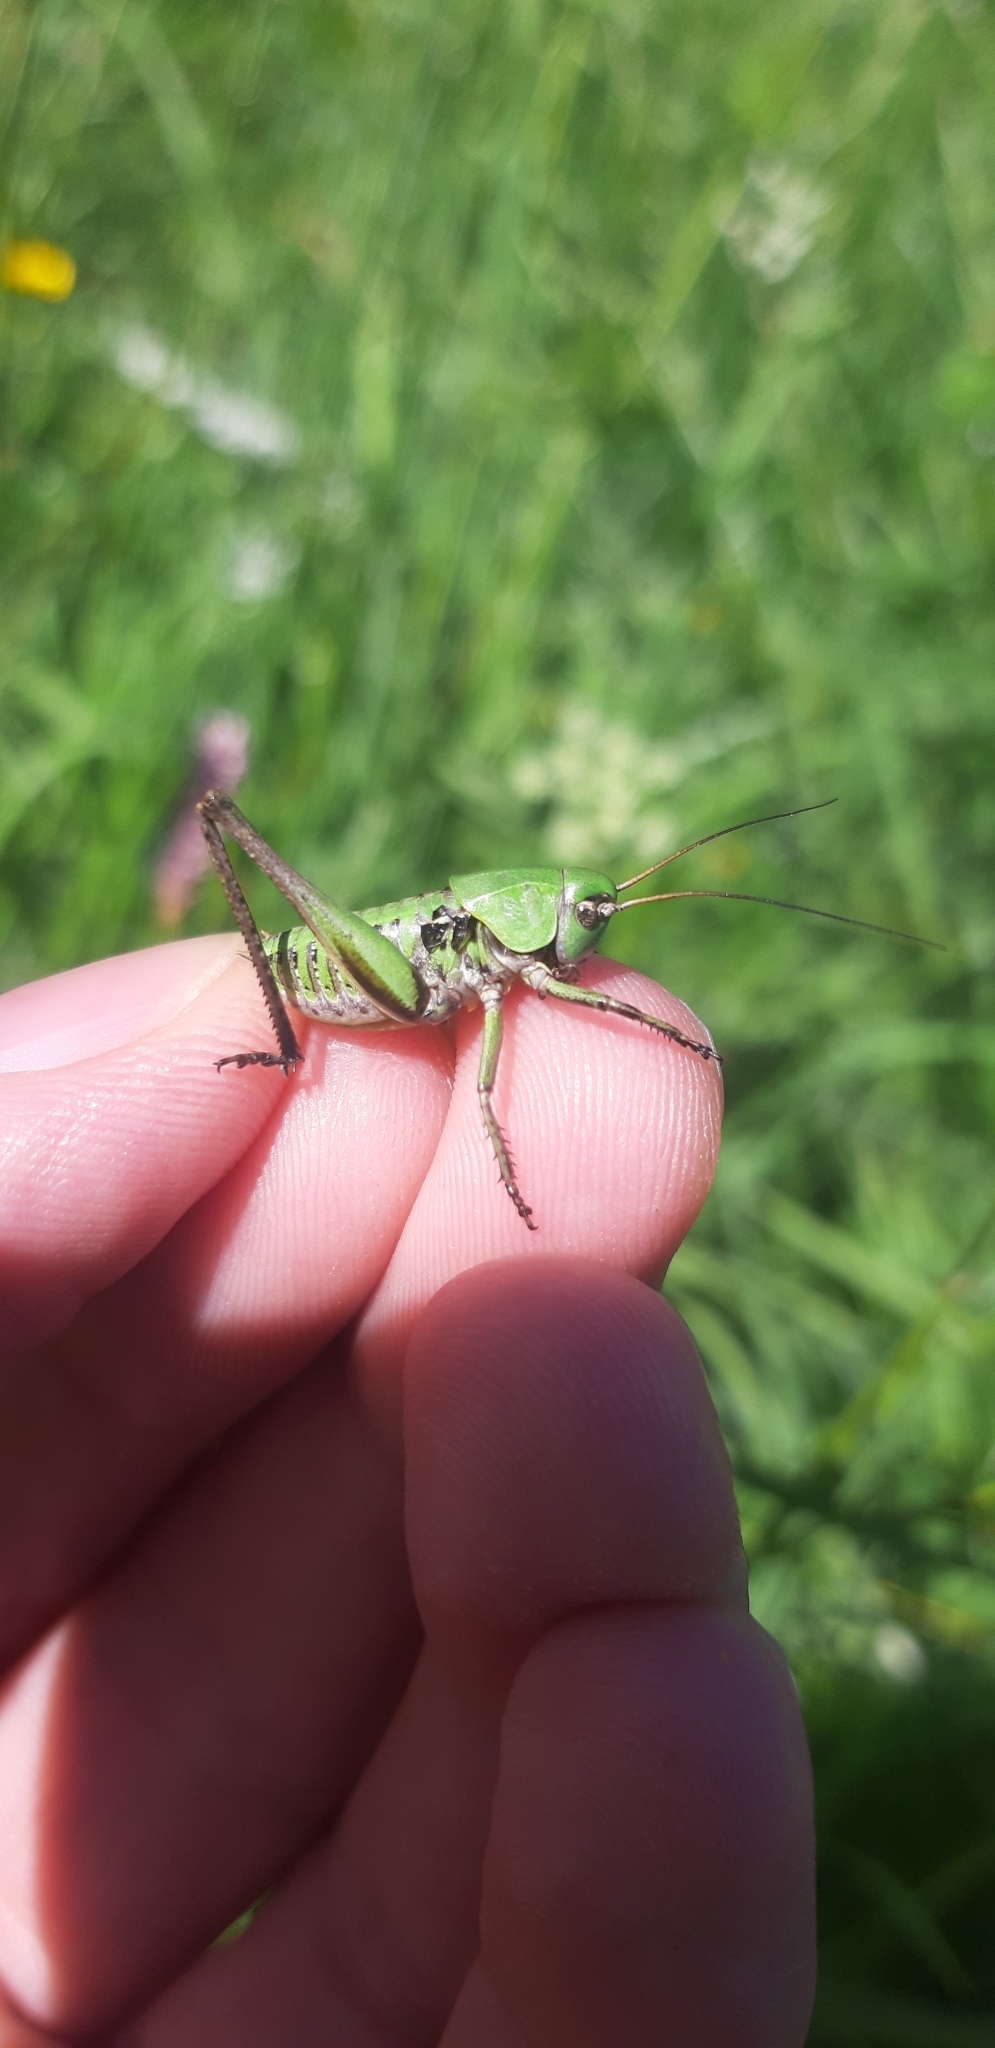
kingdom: Animalia
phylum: Arthropoda
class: Insecta
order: Orthoptera
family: Tettigoniidae
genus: Decticus
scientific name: Decticus verrucivorus
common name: Wart-biter
